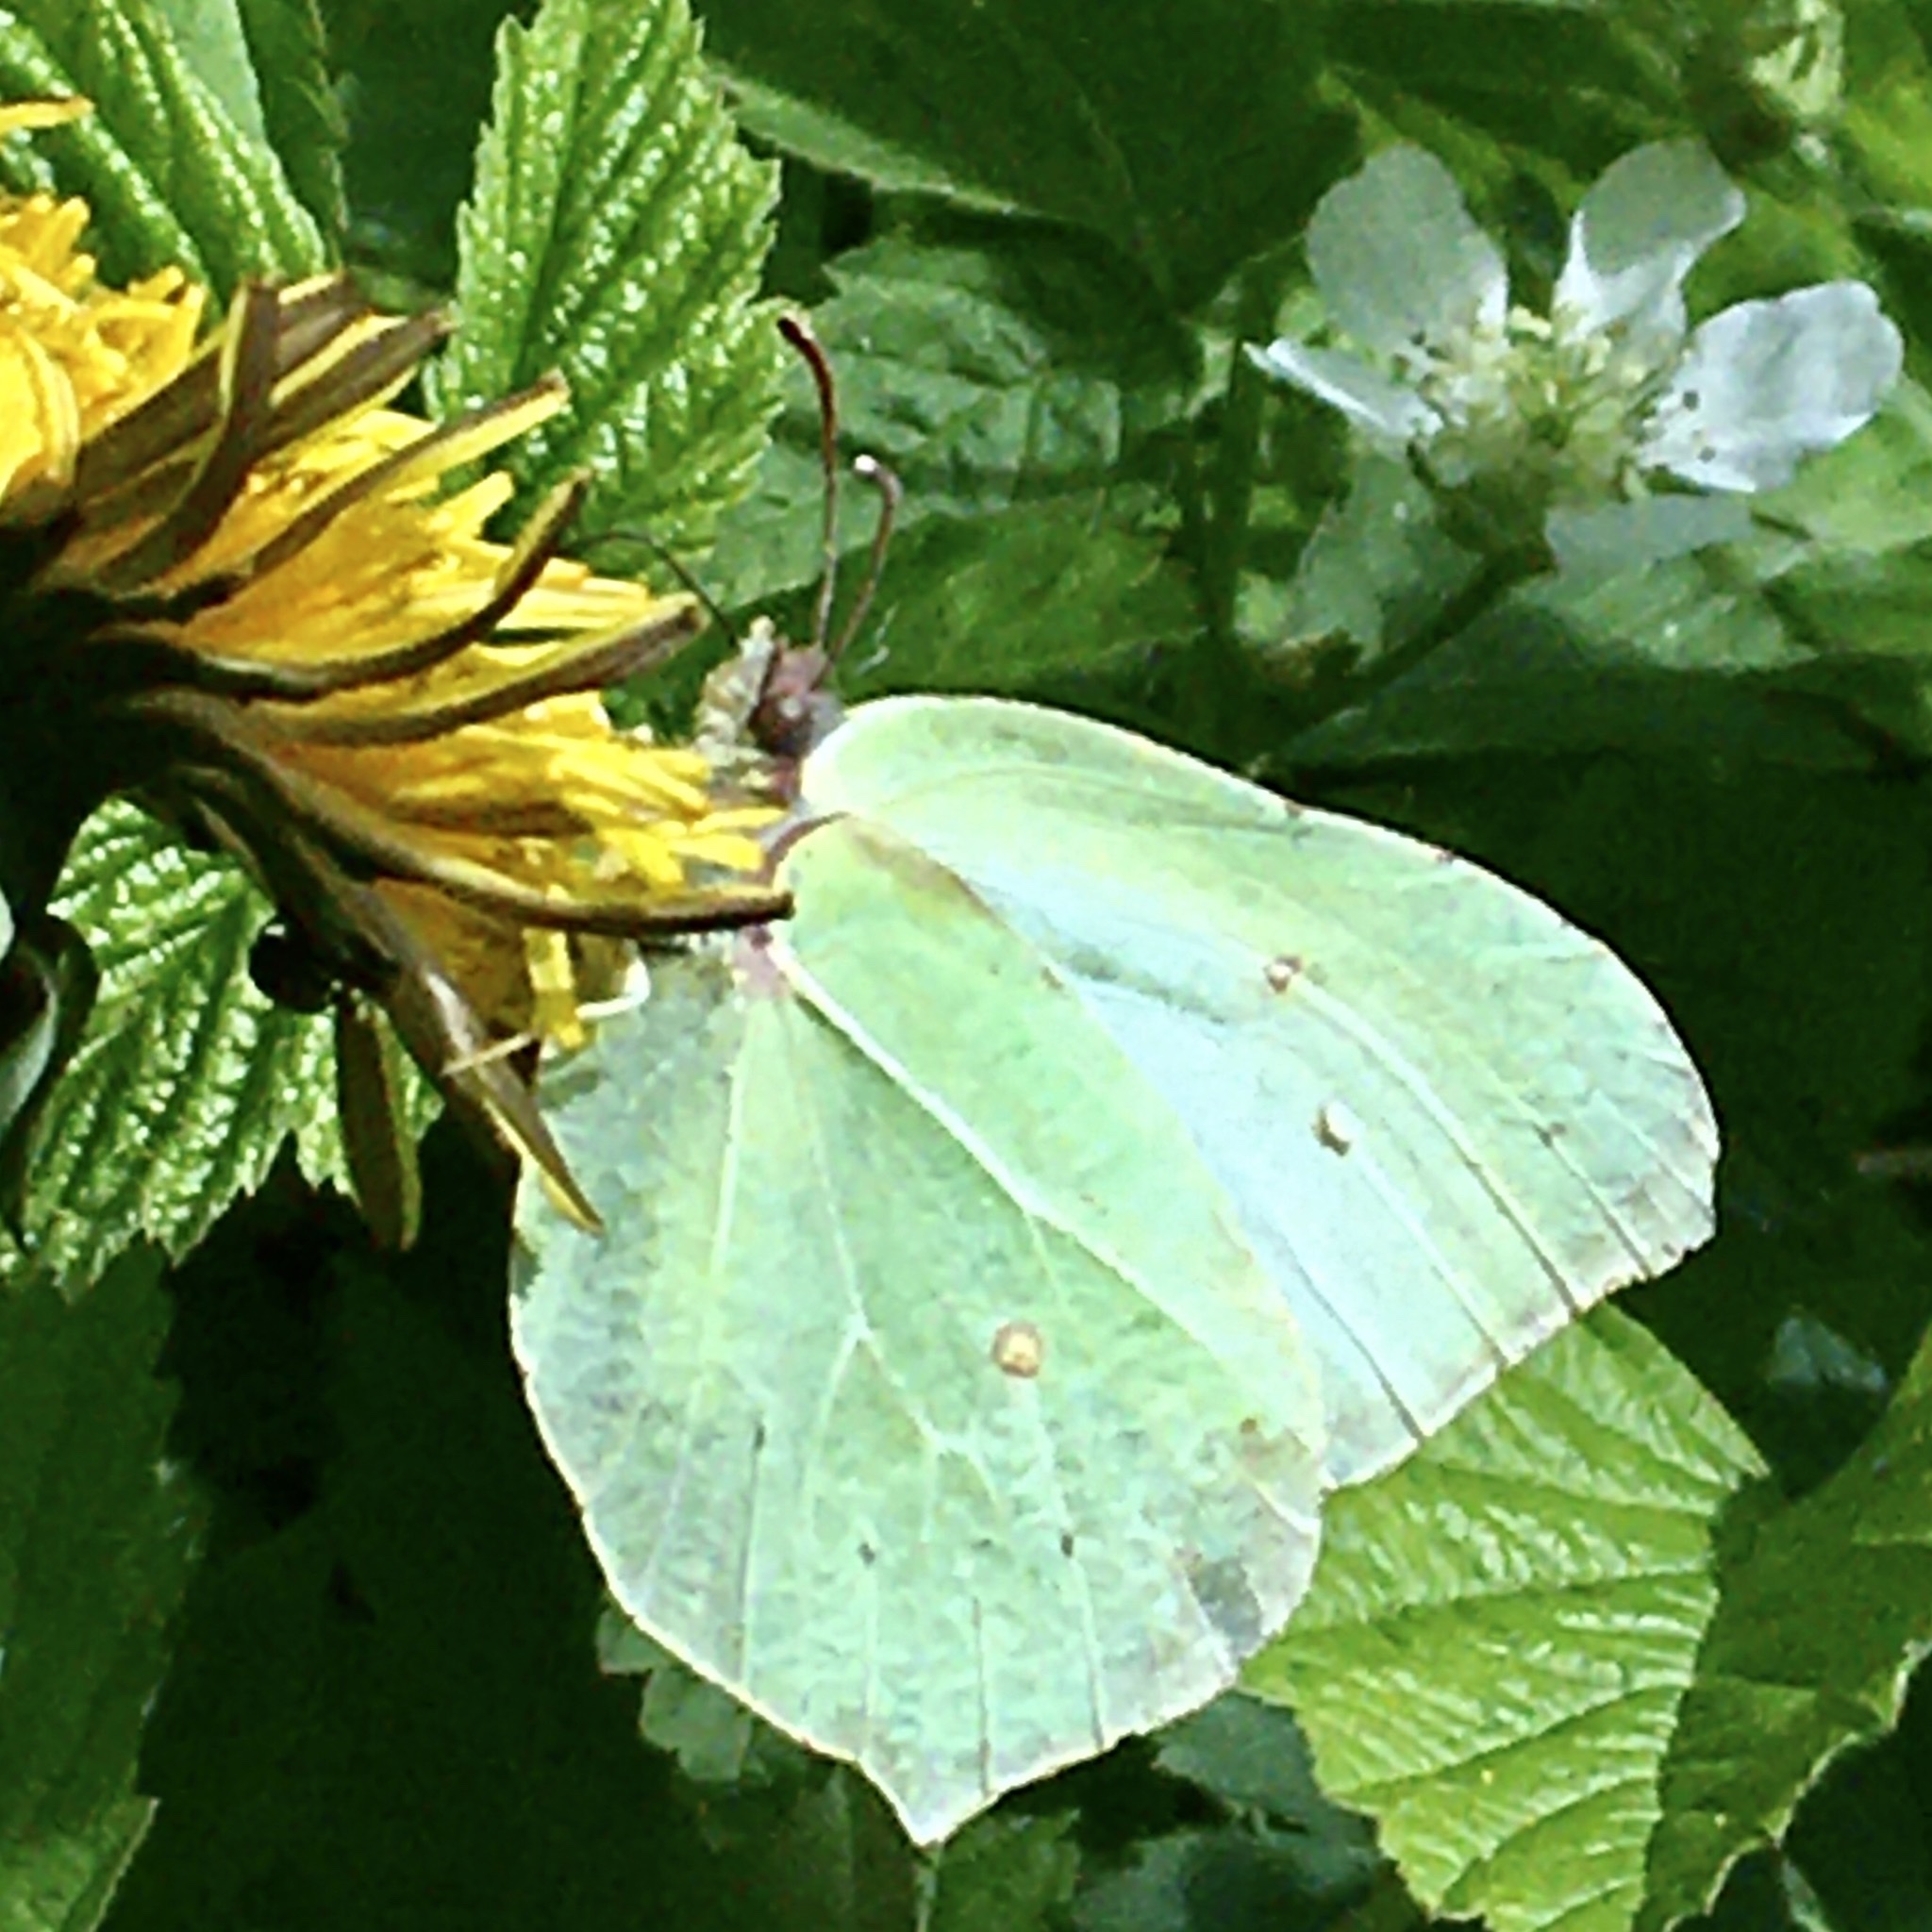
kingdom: Animalia
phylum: Arthropoda
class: Insecta
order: Lepidoptera
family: Pieridae
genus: Gonepteryx
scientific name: Gonepteryx rhamni
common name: Brimstone
